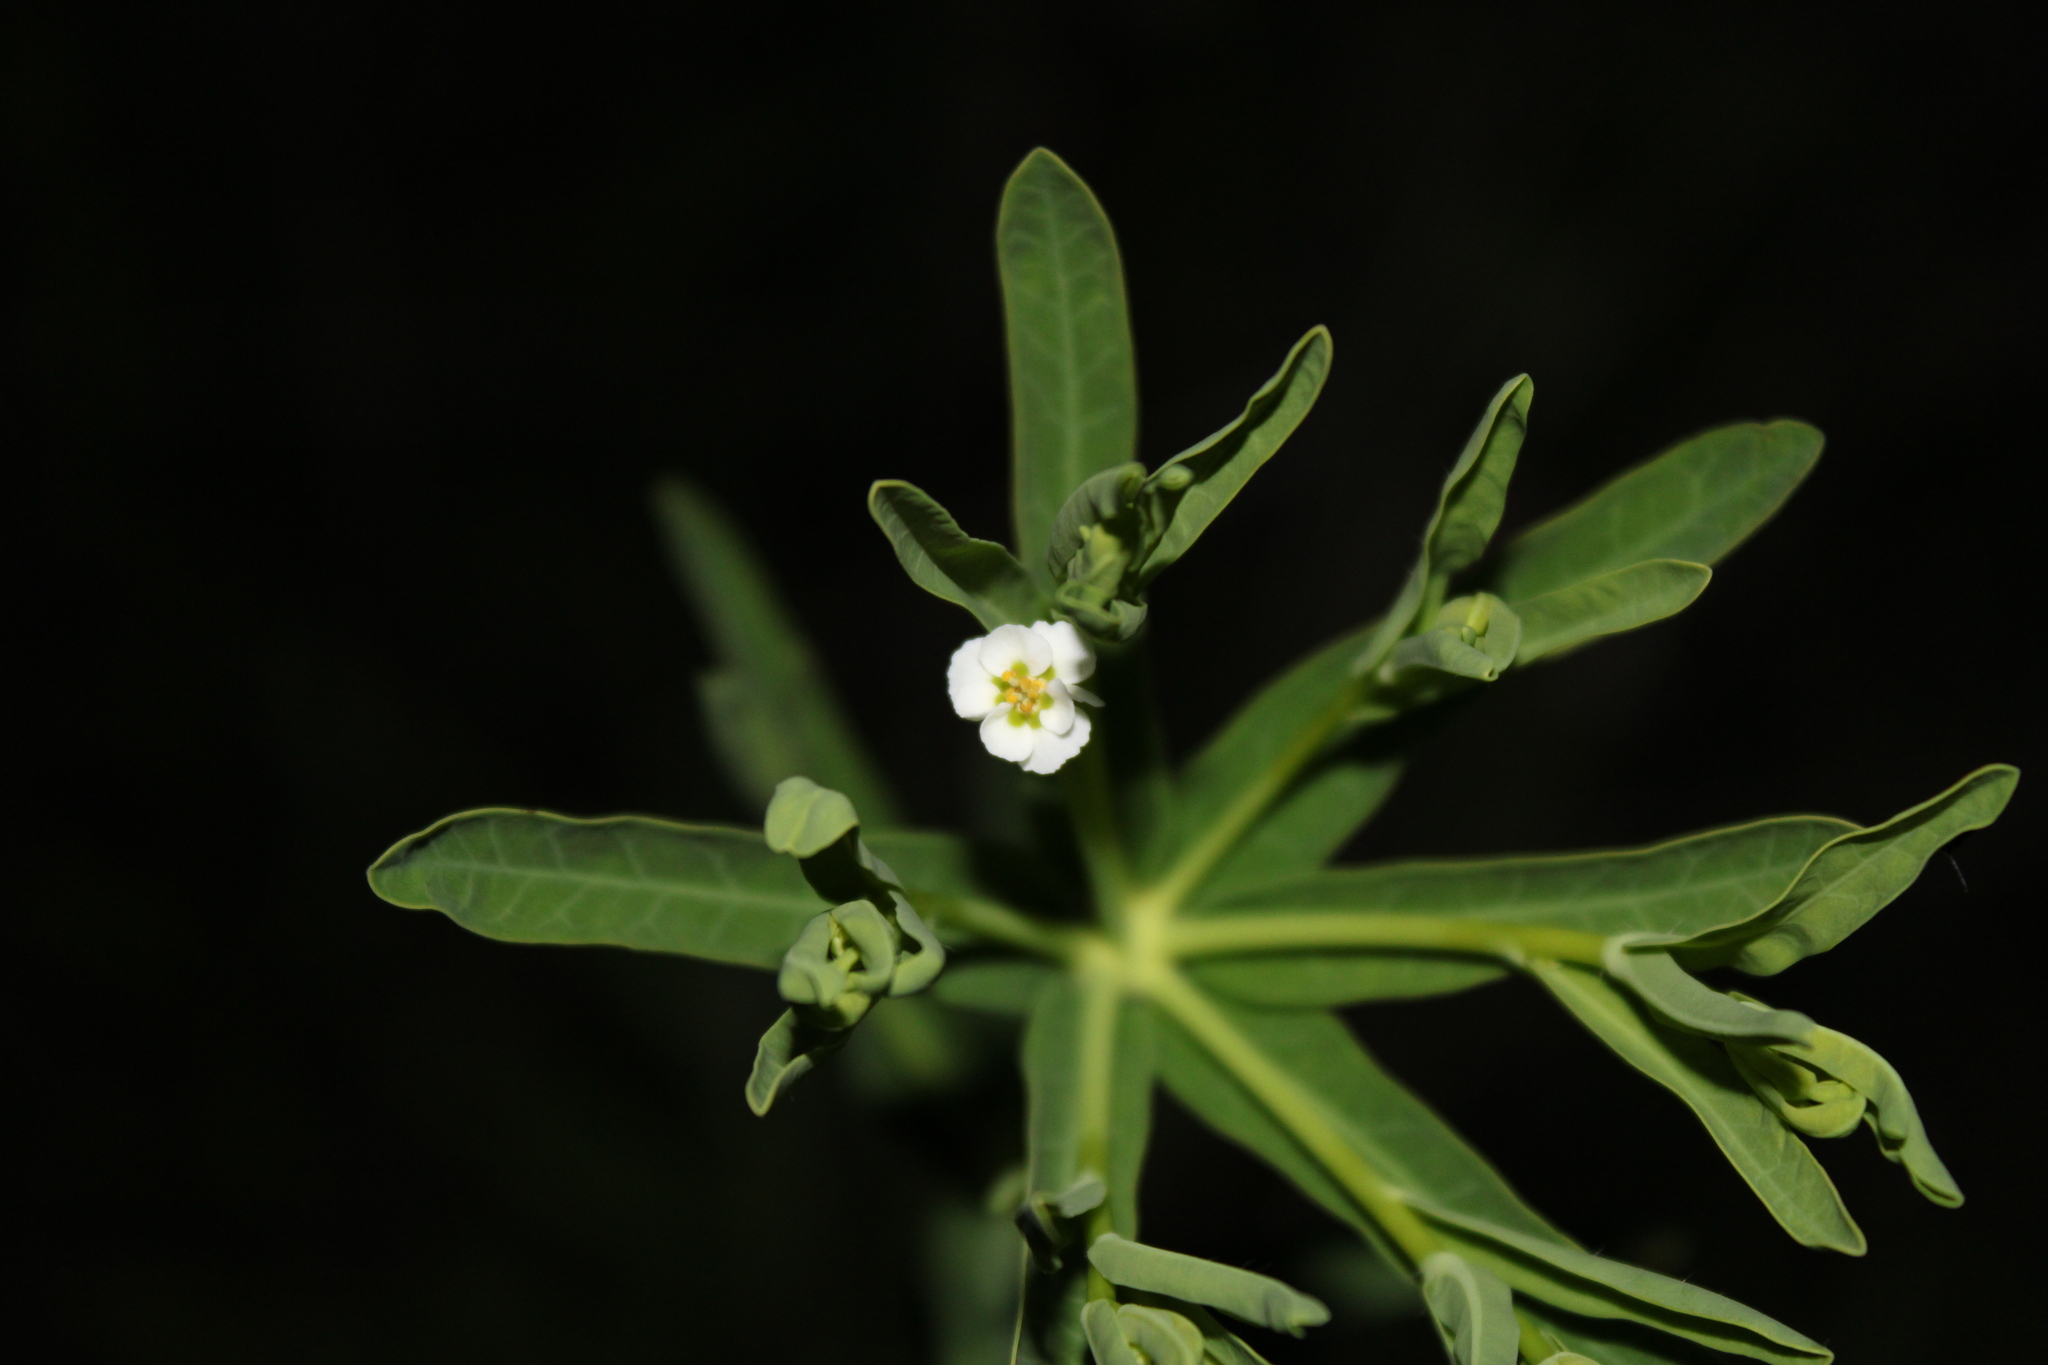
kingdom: Plantae
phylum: Tracheophyta
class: Magnoliopsida
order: Malpighiales
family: Euphorbiaceae
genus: Euphorbia
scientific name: Euphorbia corollata
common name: Flowering spurge
